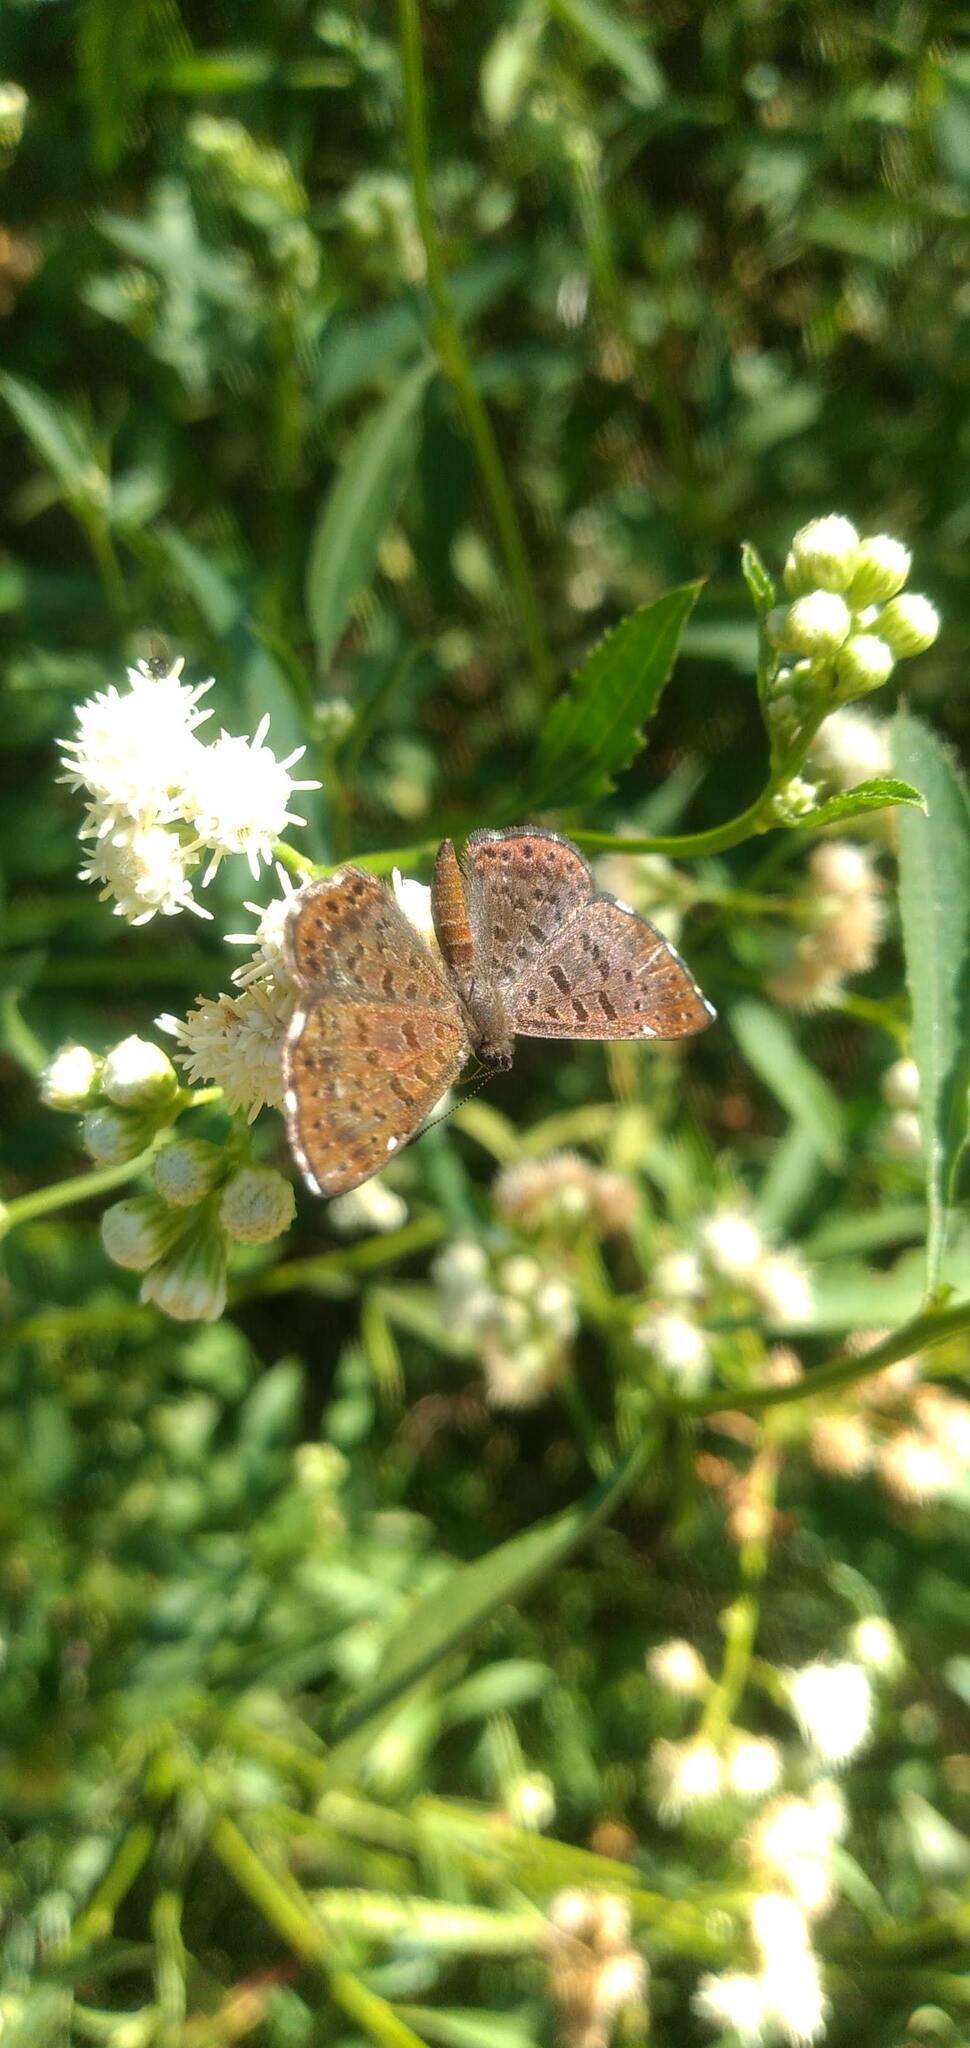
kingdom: Animalia
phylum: Arthropoda
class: Insecta
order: Lepidoptera
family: Riodinidae
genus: Teenie
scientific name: Teenie tinea
